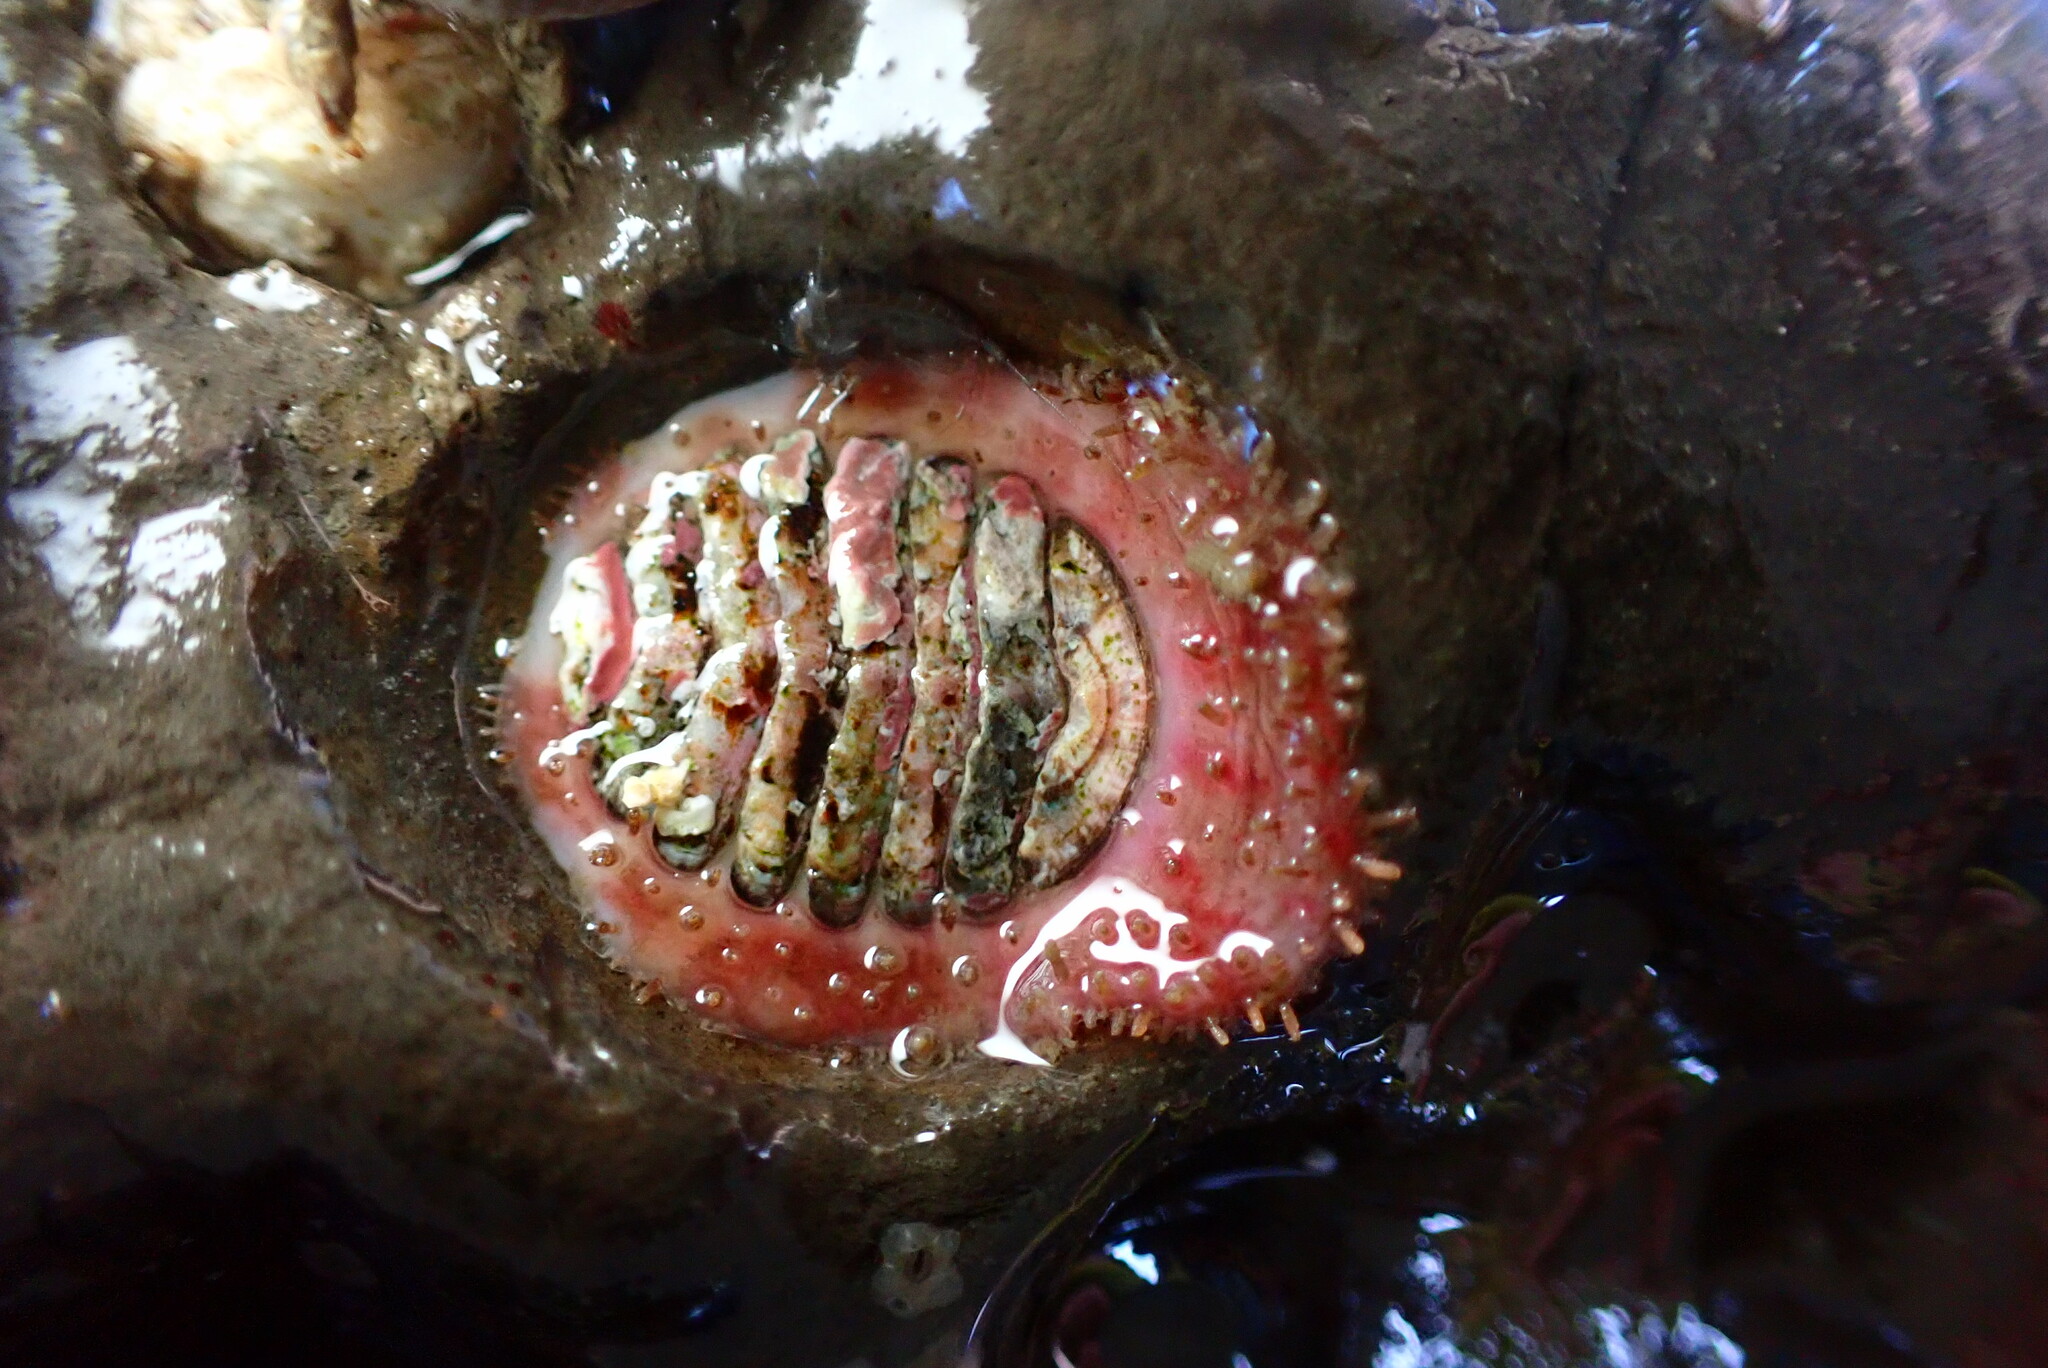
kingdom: Animalia
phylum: Mollusca
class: Polyplacophora
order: Chitonida
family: Mopaliidae
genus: Placiphorella
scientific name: Placiphorella velata
